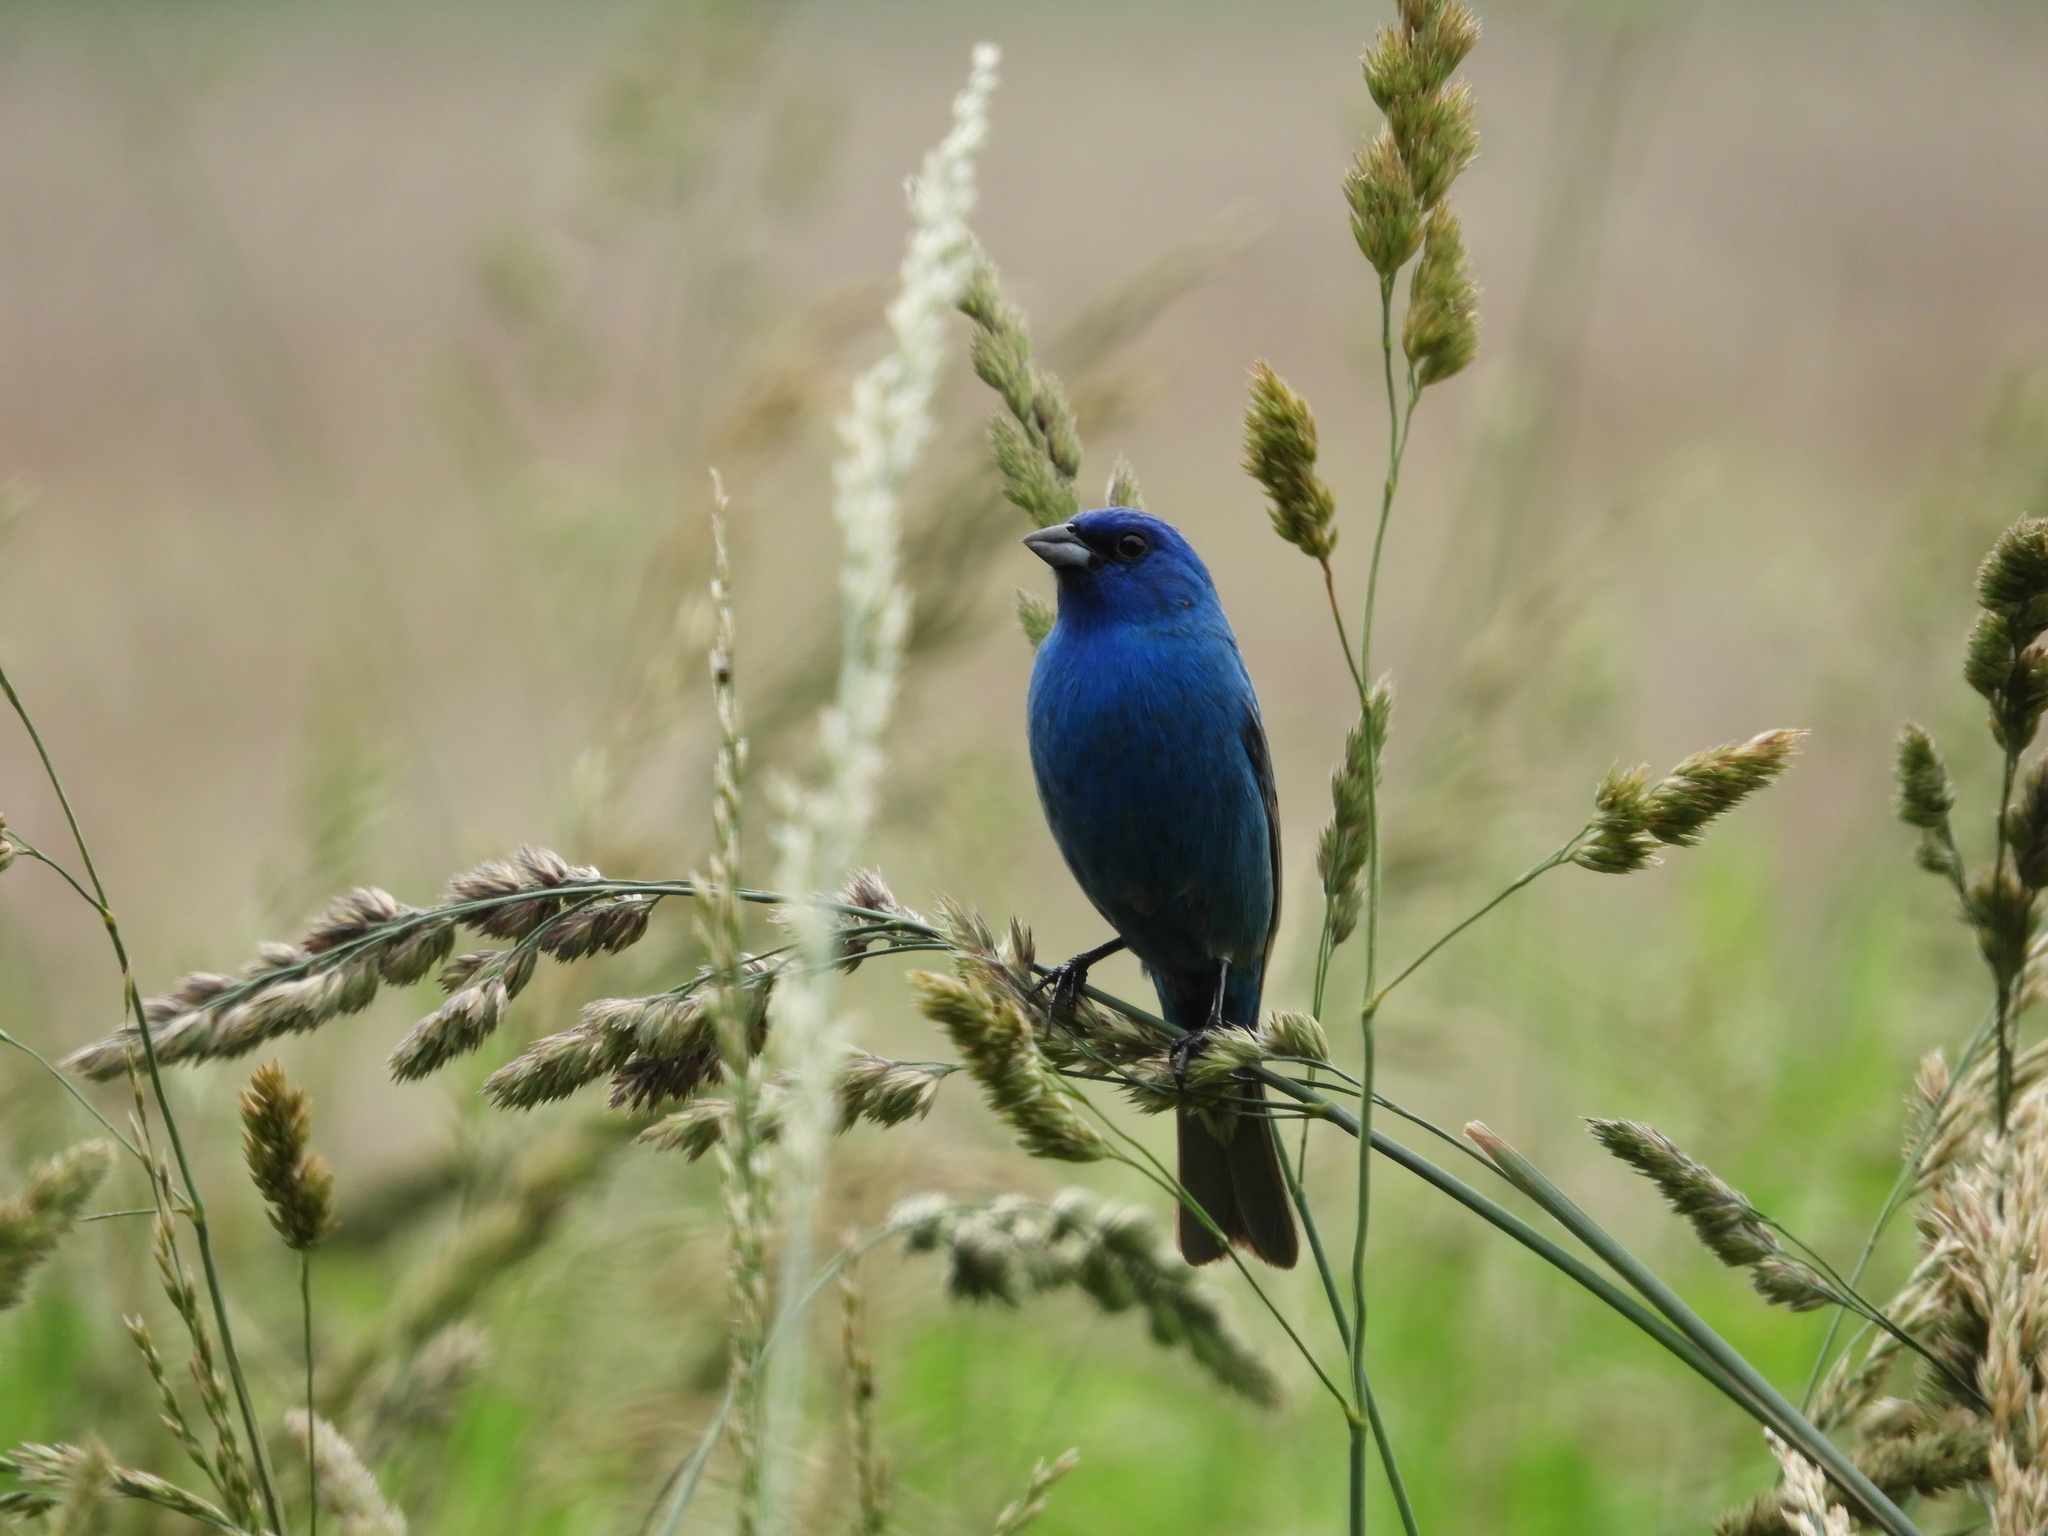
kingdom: Animalia
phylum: Chordata
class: Aves
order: Passeriformes
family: Cardinalidae
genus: Passerina
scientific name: Passerina cyanea
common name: Indigo bunting
